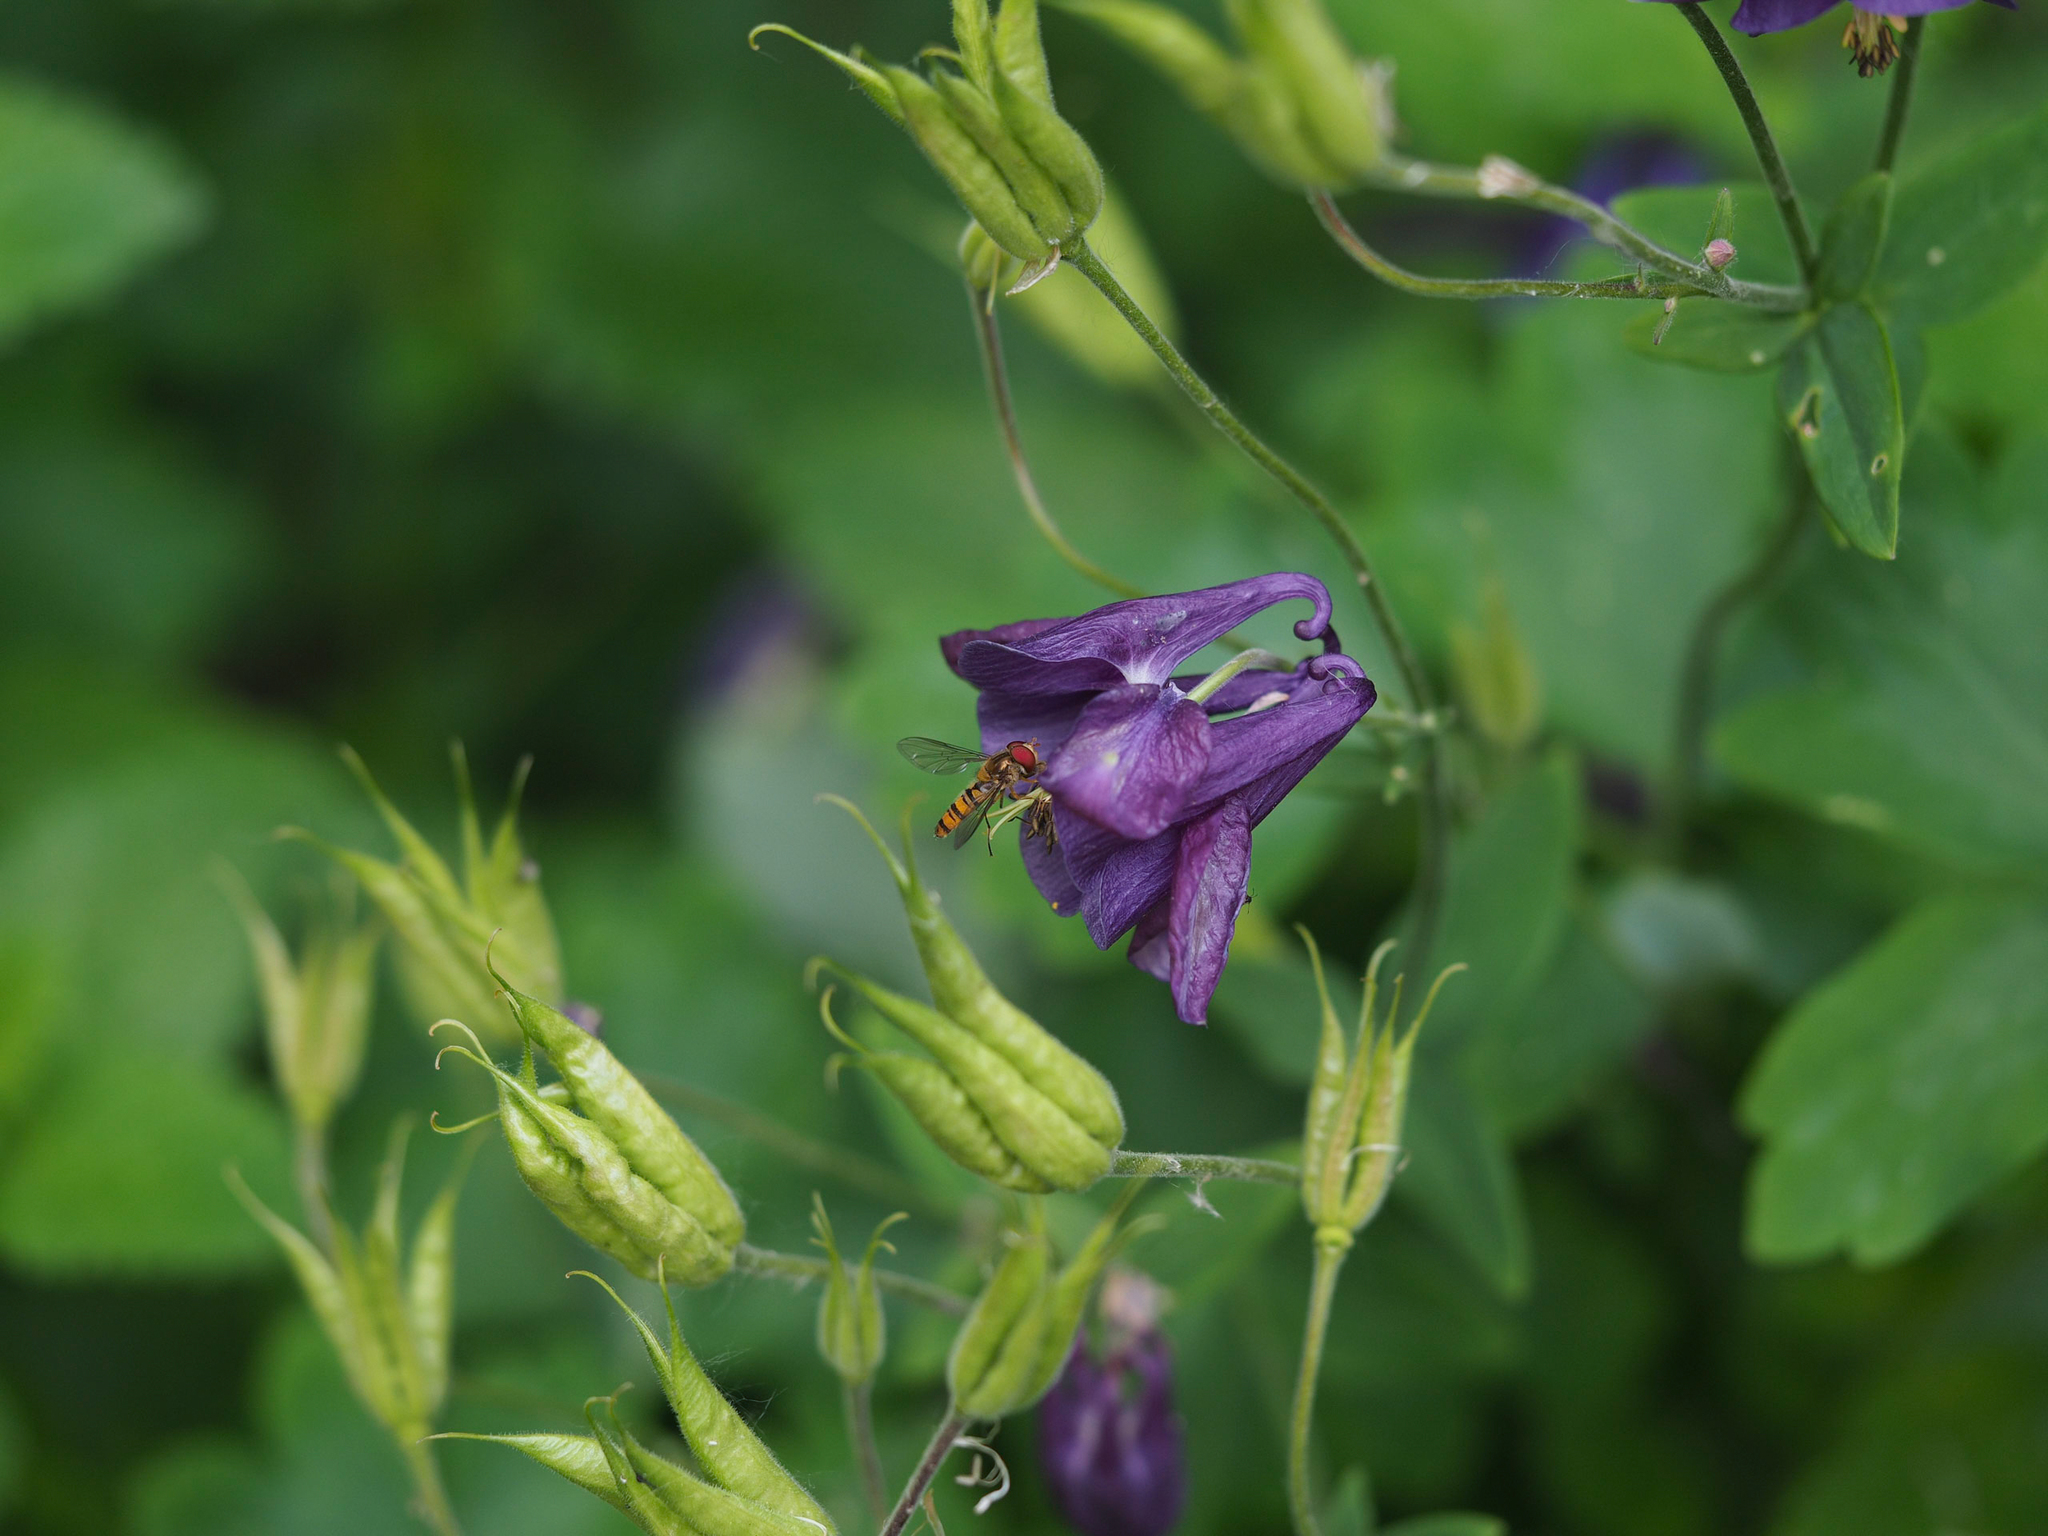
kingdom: Plantae
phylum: Tracheophyta
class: Magnoliopsida
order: Ranunculales
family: Ranunculaceae
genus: Aquilegia
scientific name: Aquilegia vulgaris
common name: Columbine
